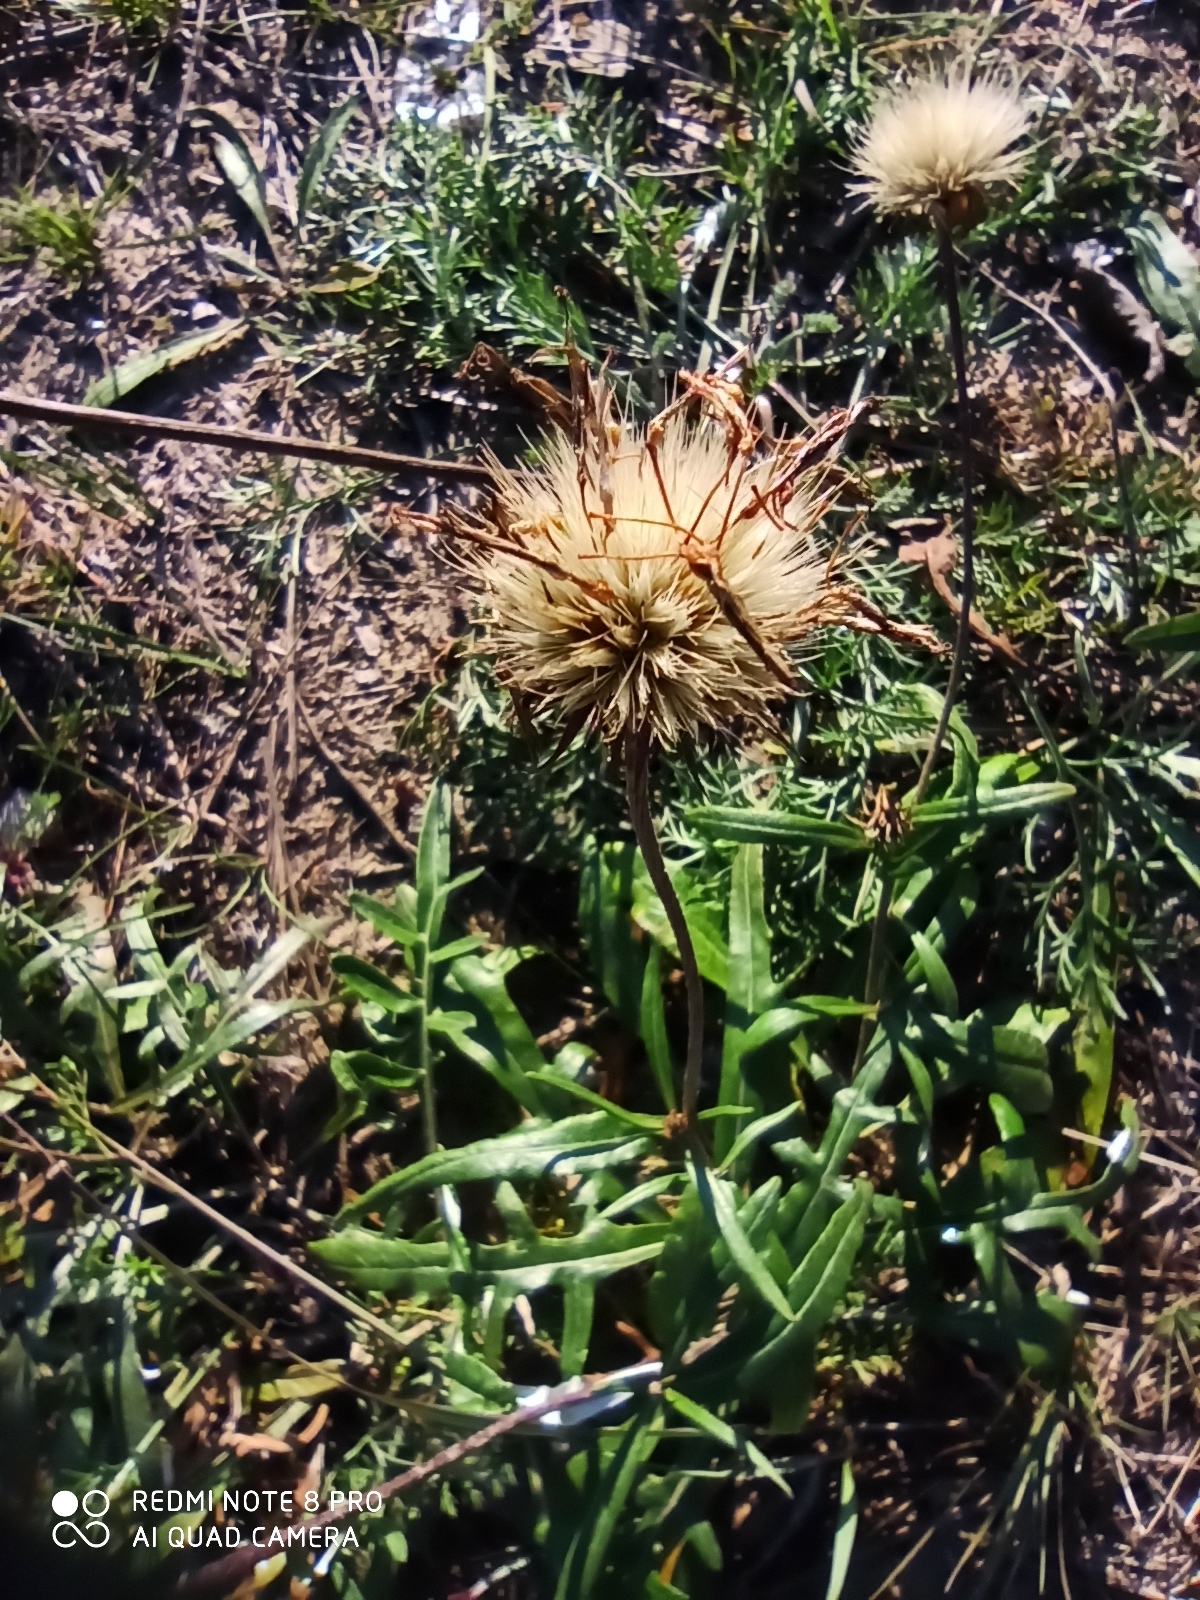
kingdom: Plantae
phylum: Tracheophyta
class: Magnoliopsida
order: Asterales
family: Asteraceae
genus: Jurinea
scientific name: Jurinea cyanoides
